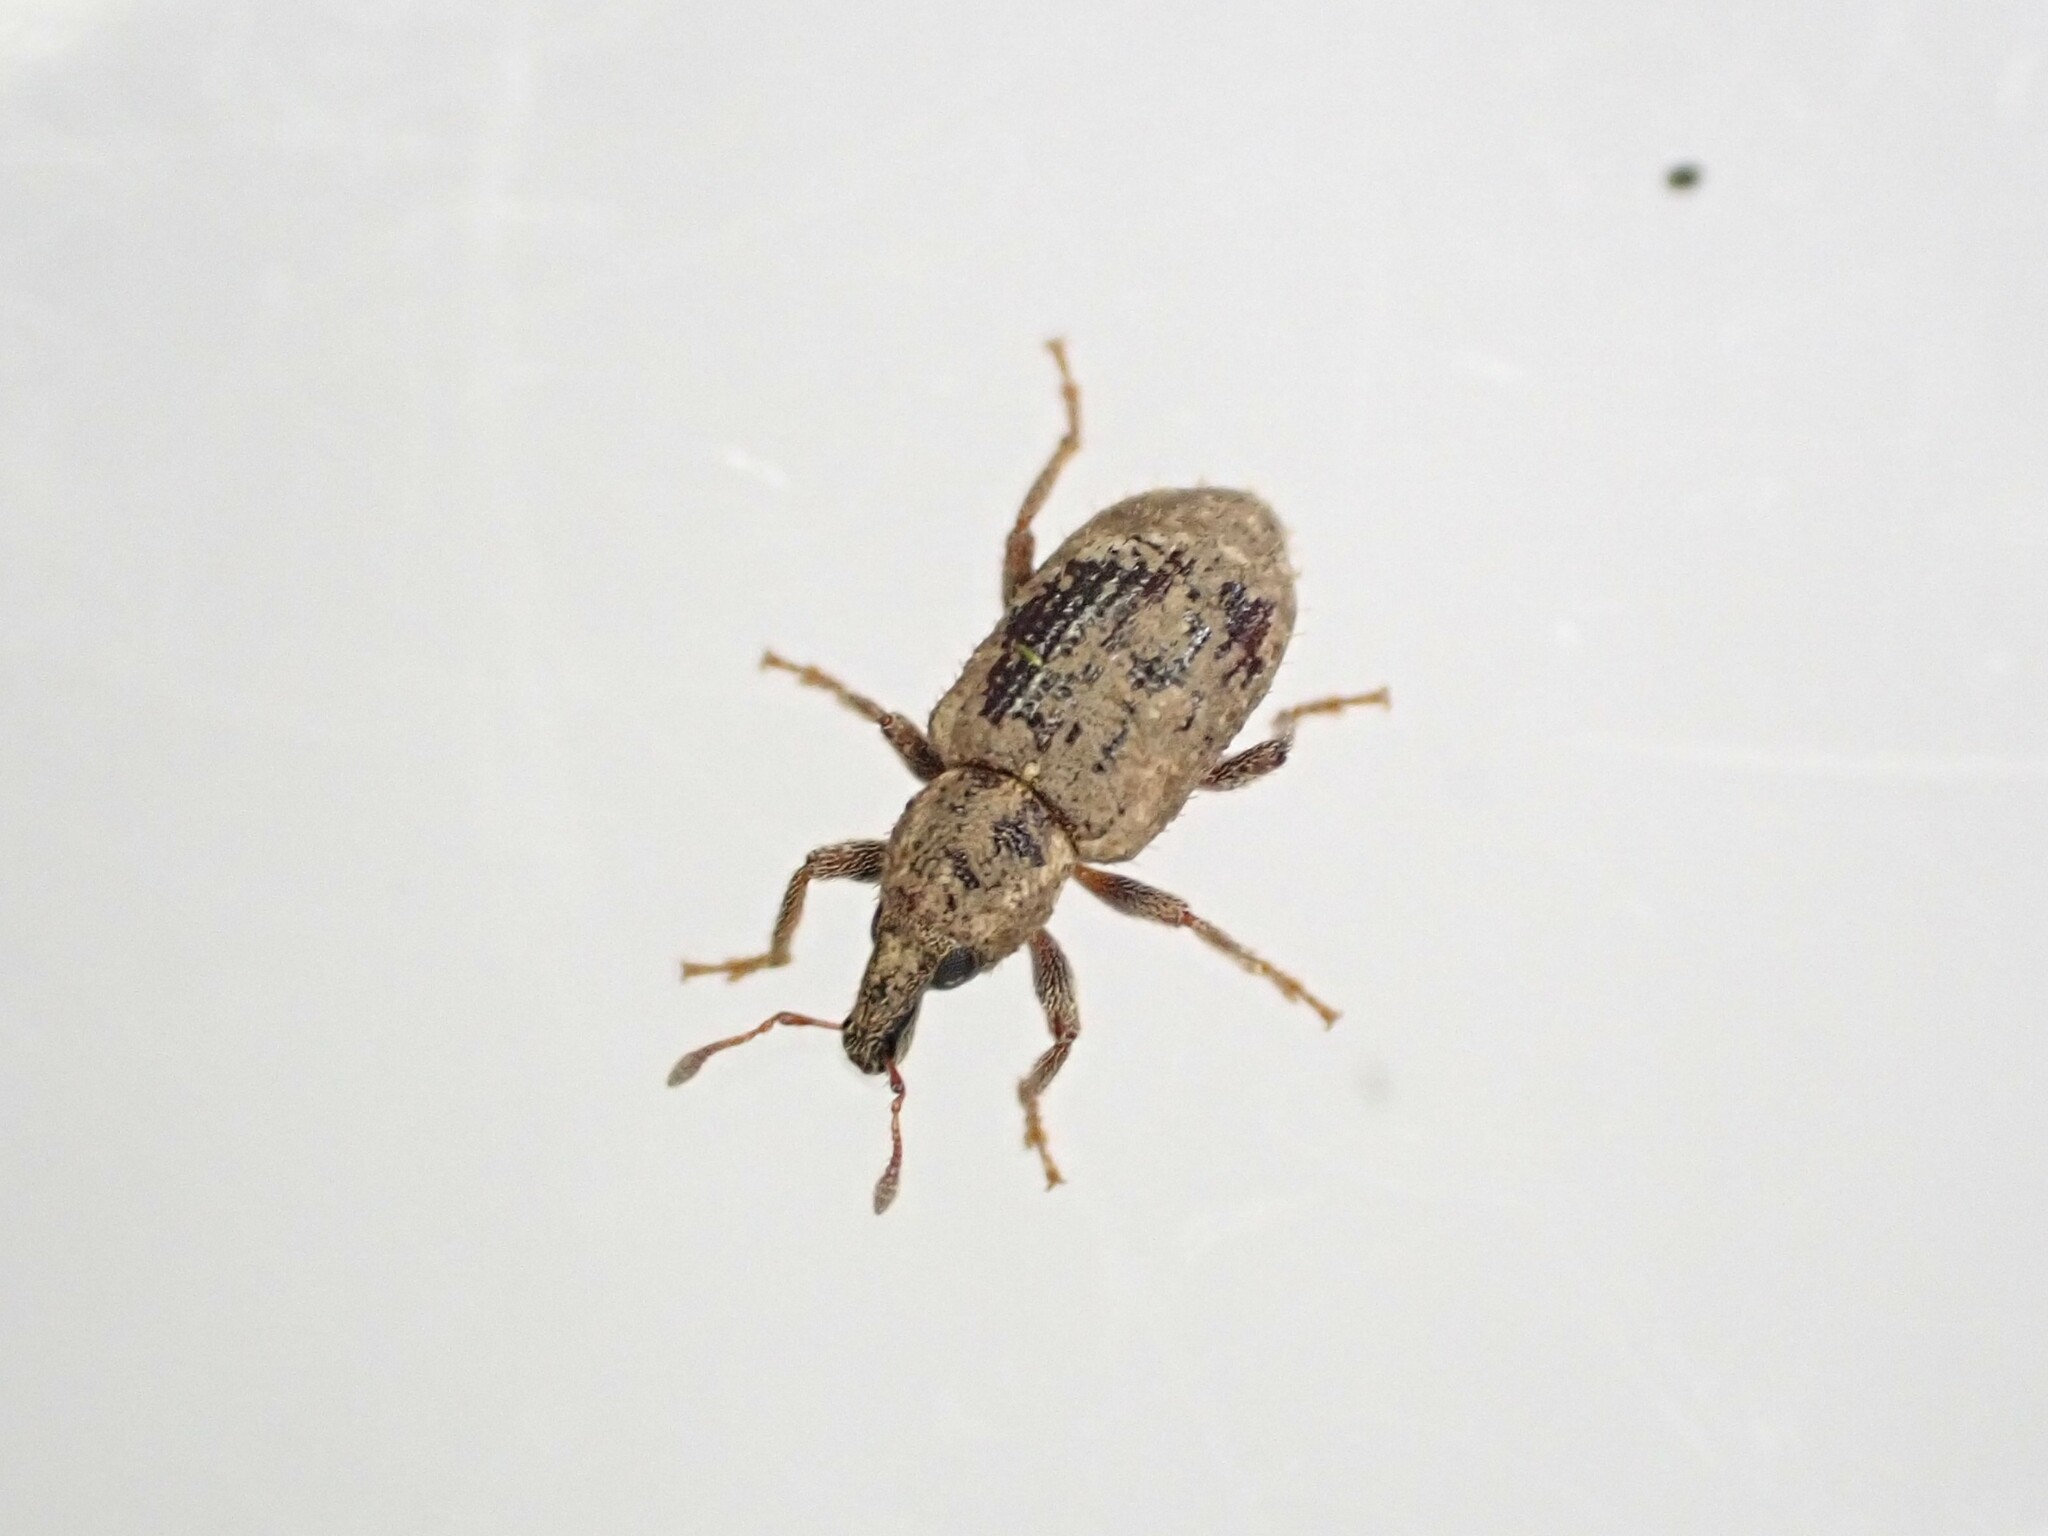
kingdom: Animalia
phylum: Arthropoda
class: Insecta
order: Coleoptera
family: Curculionidae
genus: Listronotus
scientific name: Listronotus bonariensis
